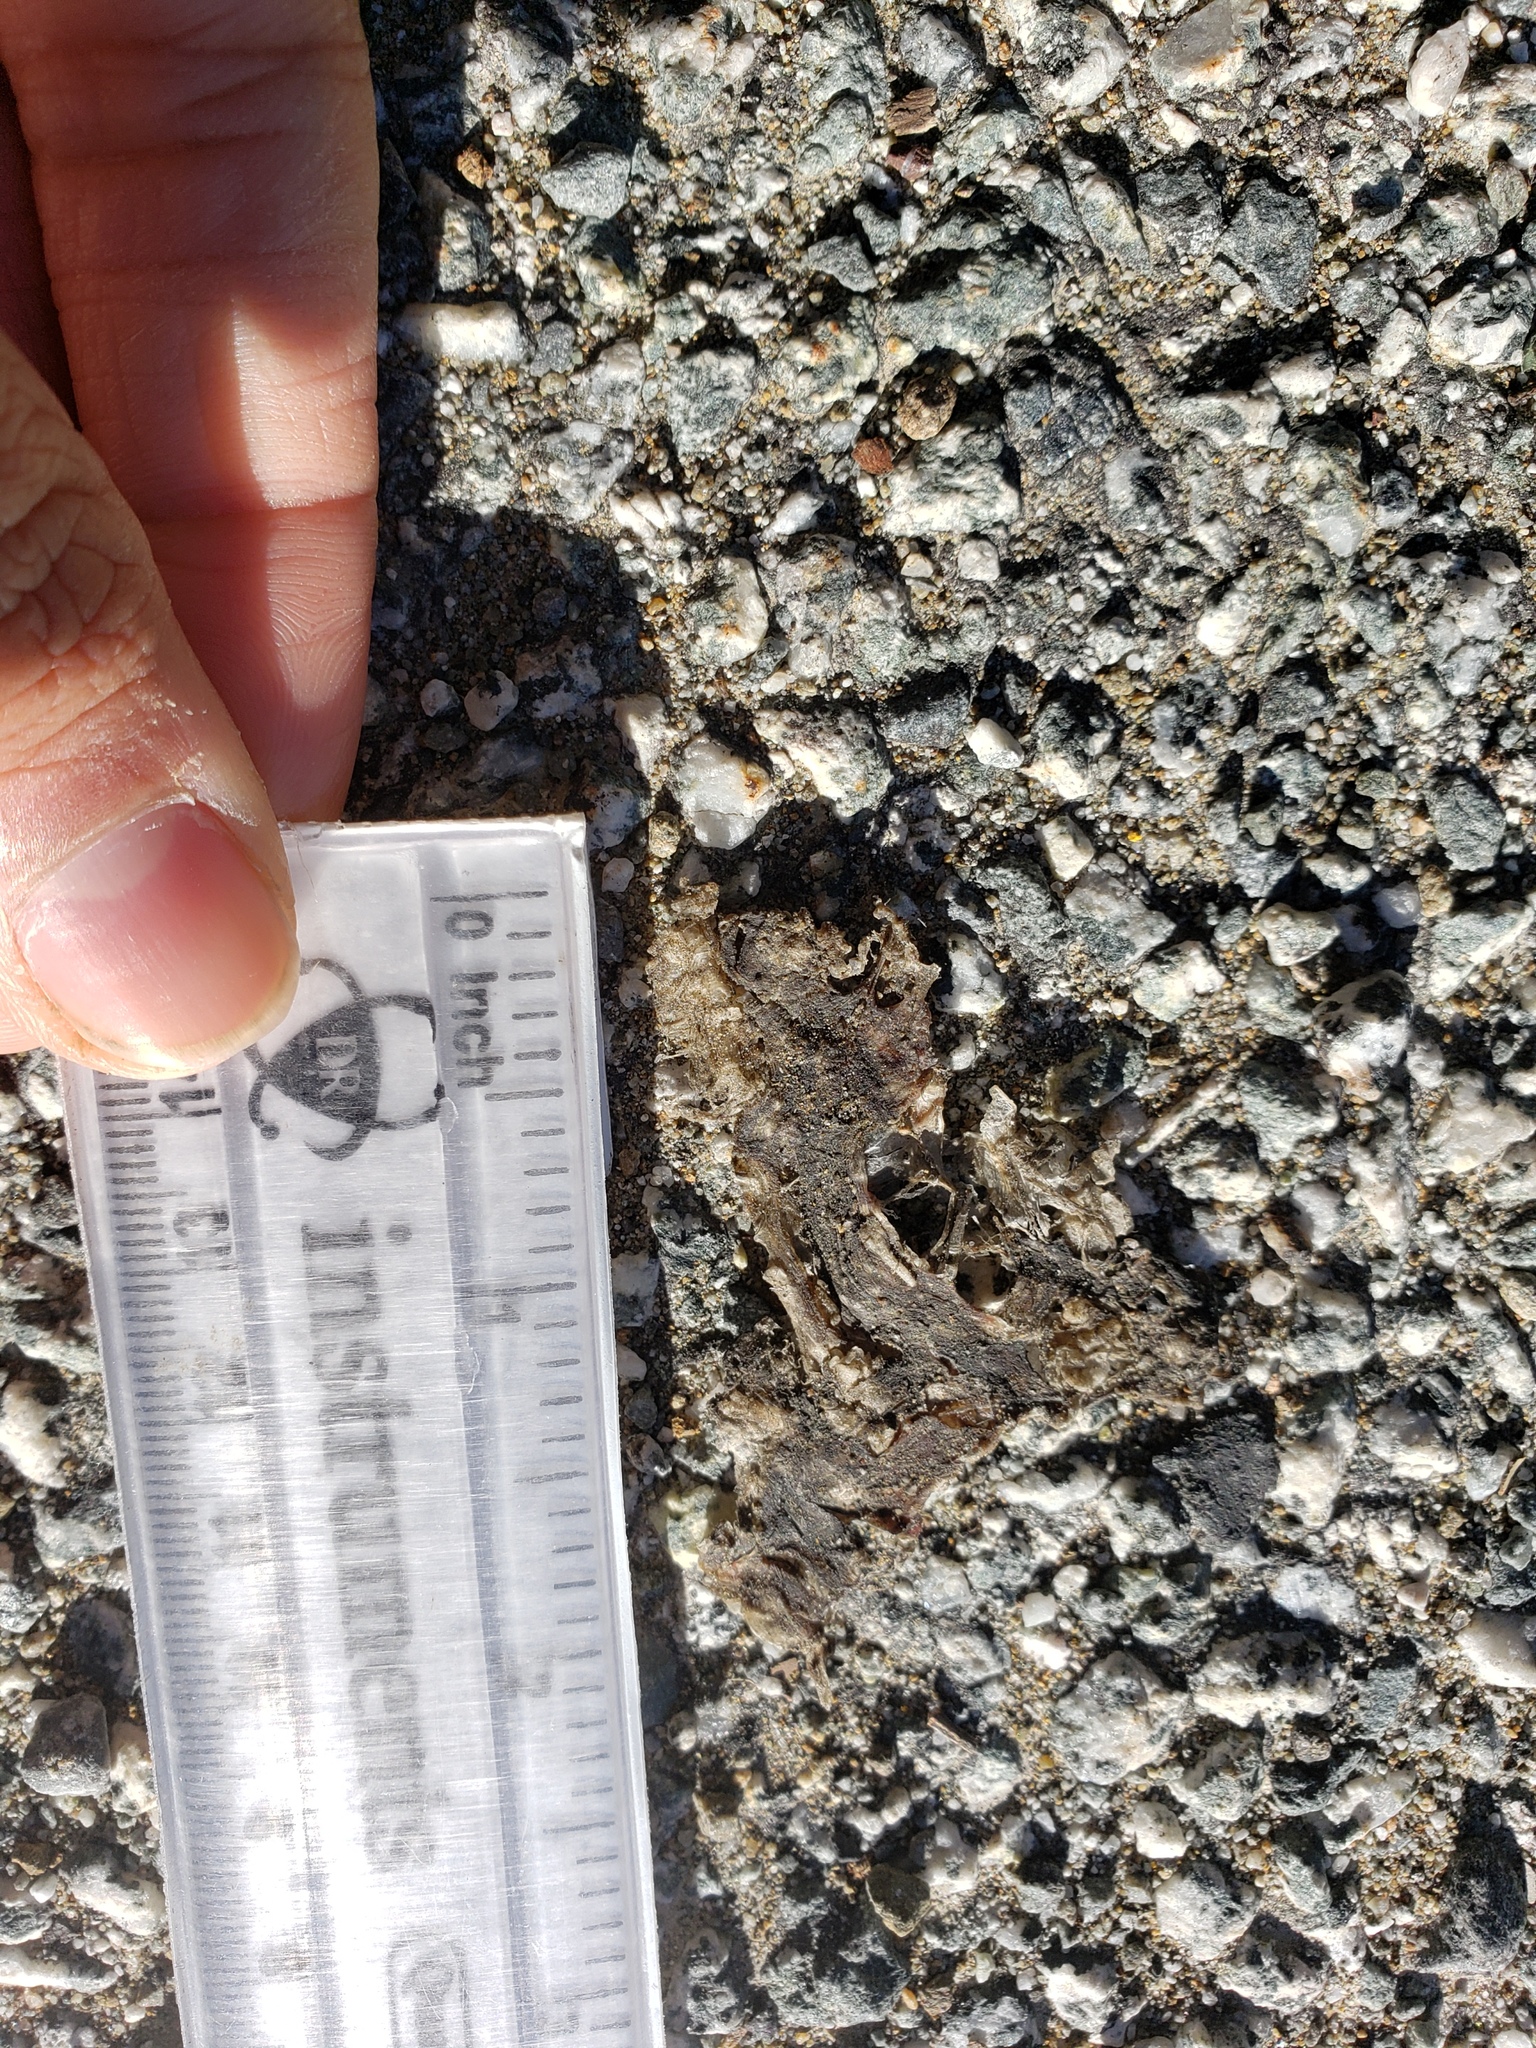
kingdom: Animalia
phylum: Chordata
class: Amphibia
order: Caudata
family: Salamandridae
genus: Taricha
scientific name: Taricha
